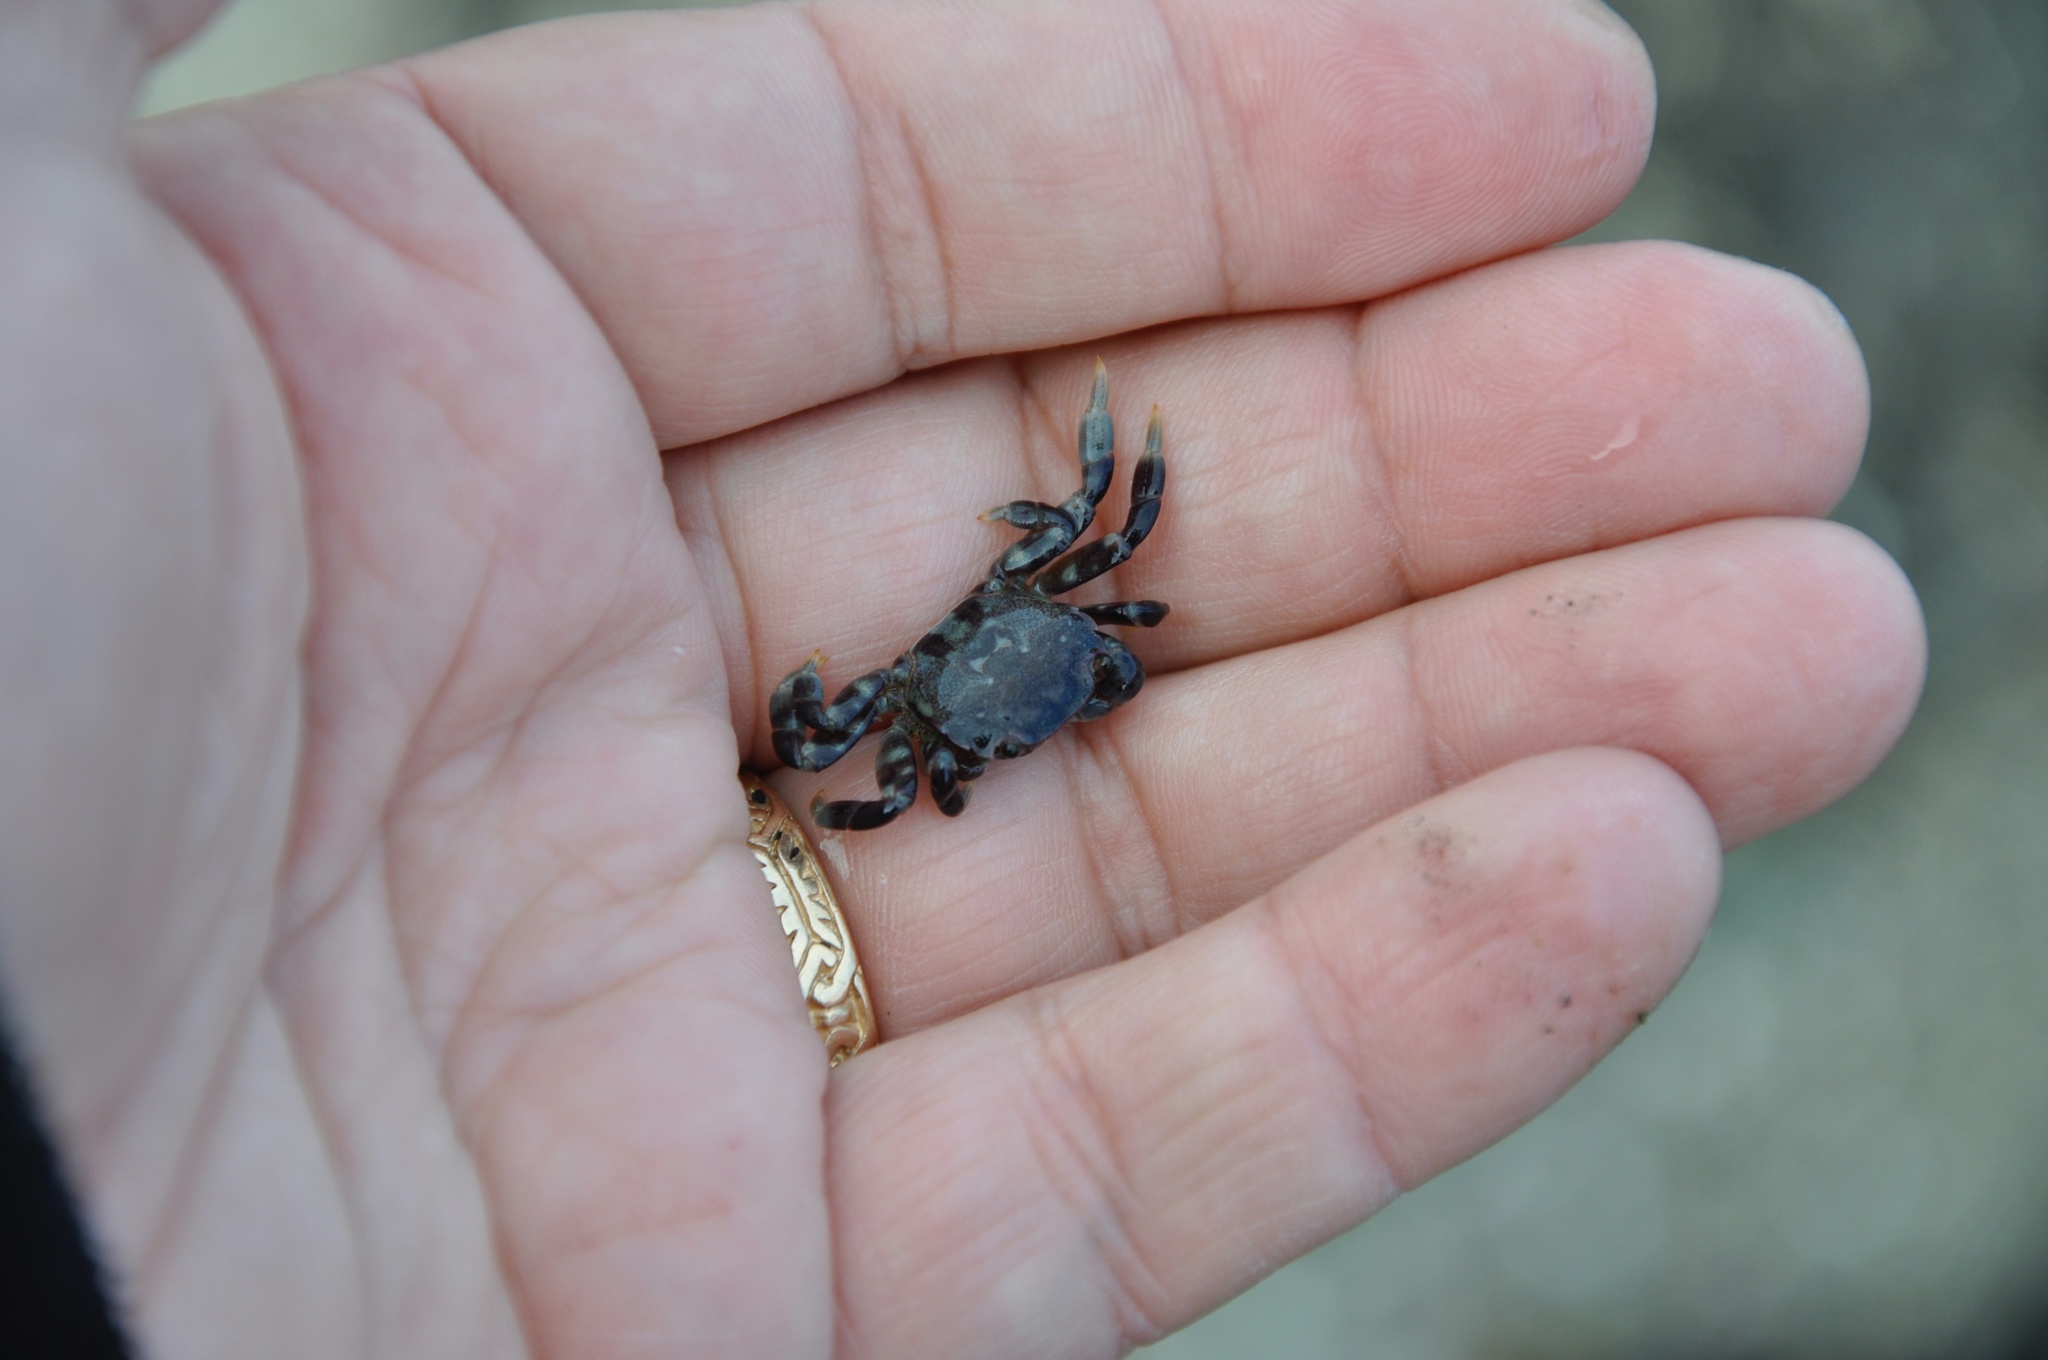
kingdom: Animalia
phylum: Arthropoda
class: Malacostraca
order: Decapoda
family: Varunidae
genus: Hemigrapsus
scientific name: Hemigrapsus nudus
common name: Purple shore crab
